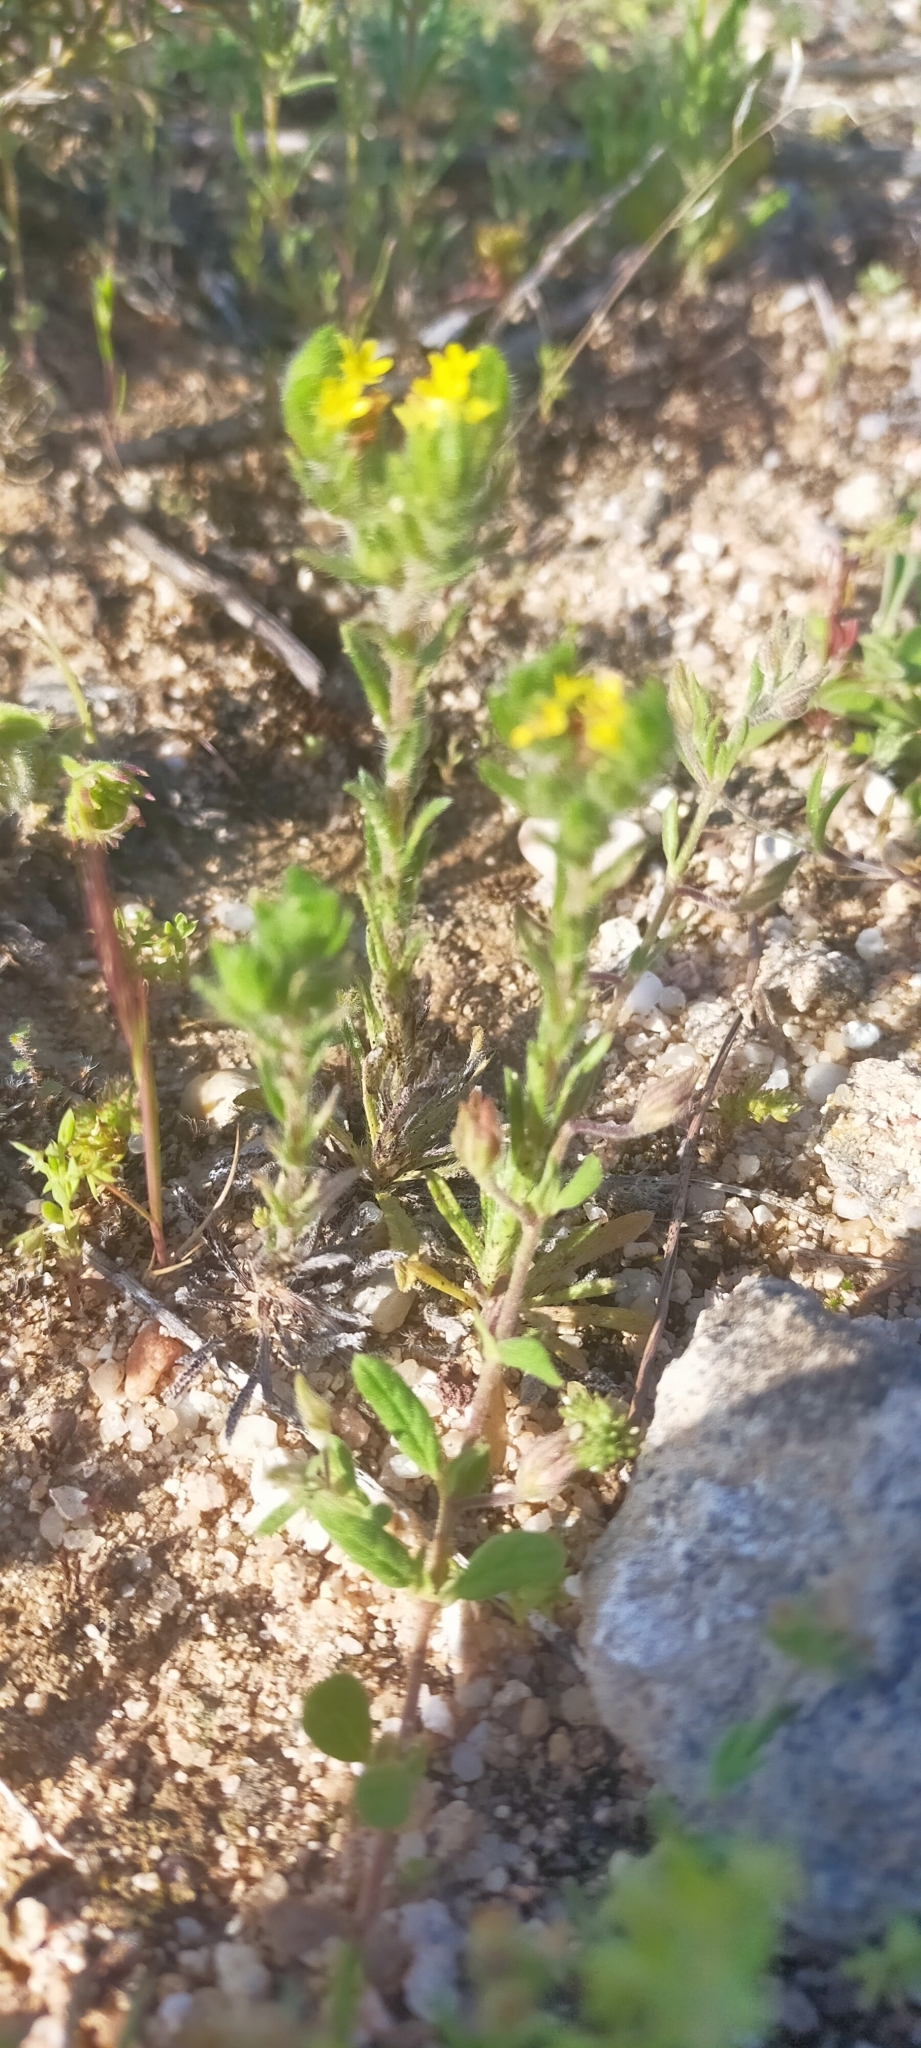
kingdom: Plantae
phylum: Tracheophyta
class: Magnoliopsida
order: Boraginales
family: Boraginaceae
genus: Neatostema
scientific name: Neatostema apulum
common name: Hairy sheepweed
